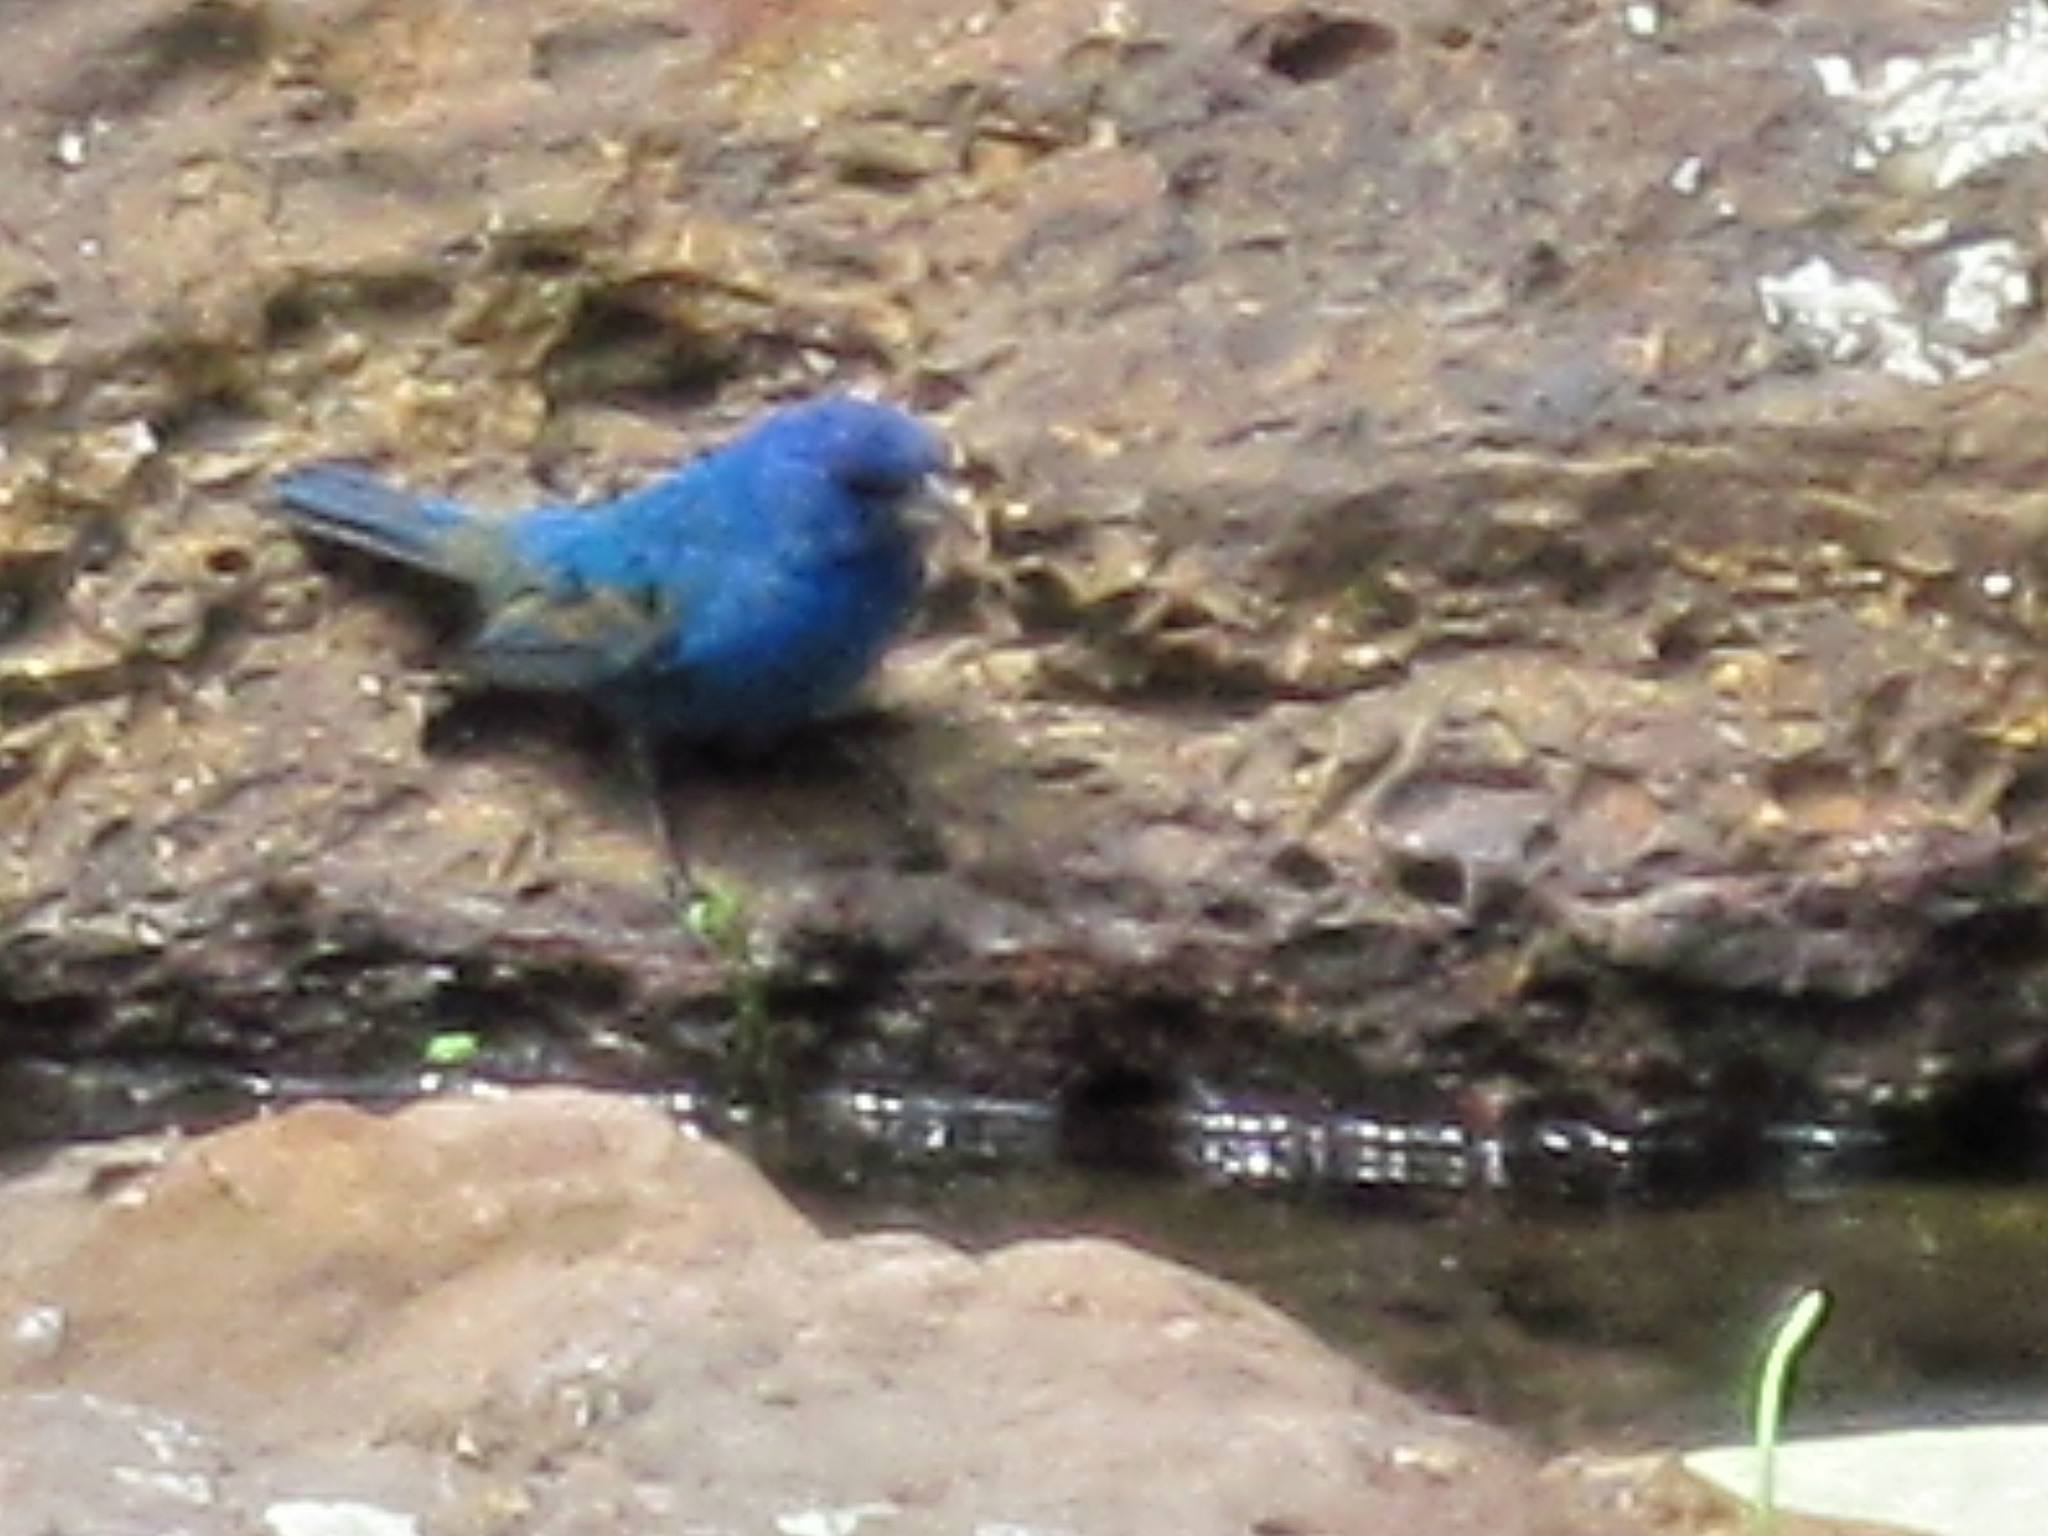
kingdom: Animalia
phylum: Chordata
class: Aves
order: Passeriformes
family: Cardinalidae
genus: Passerina
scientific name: Passerina cyanea
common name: Indigo bunting
